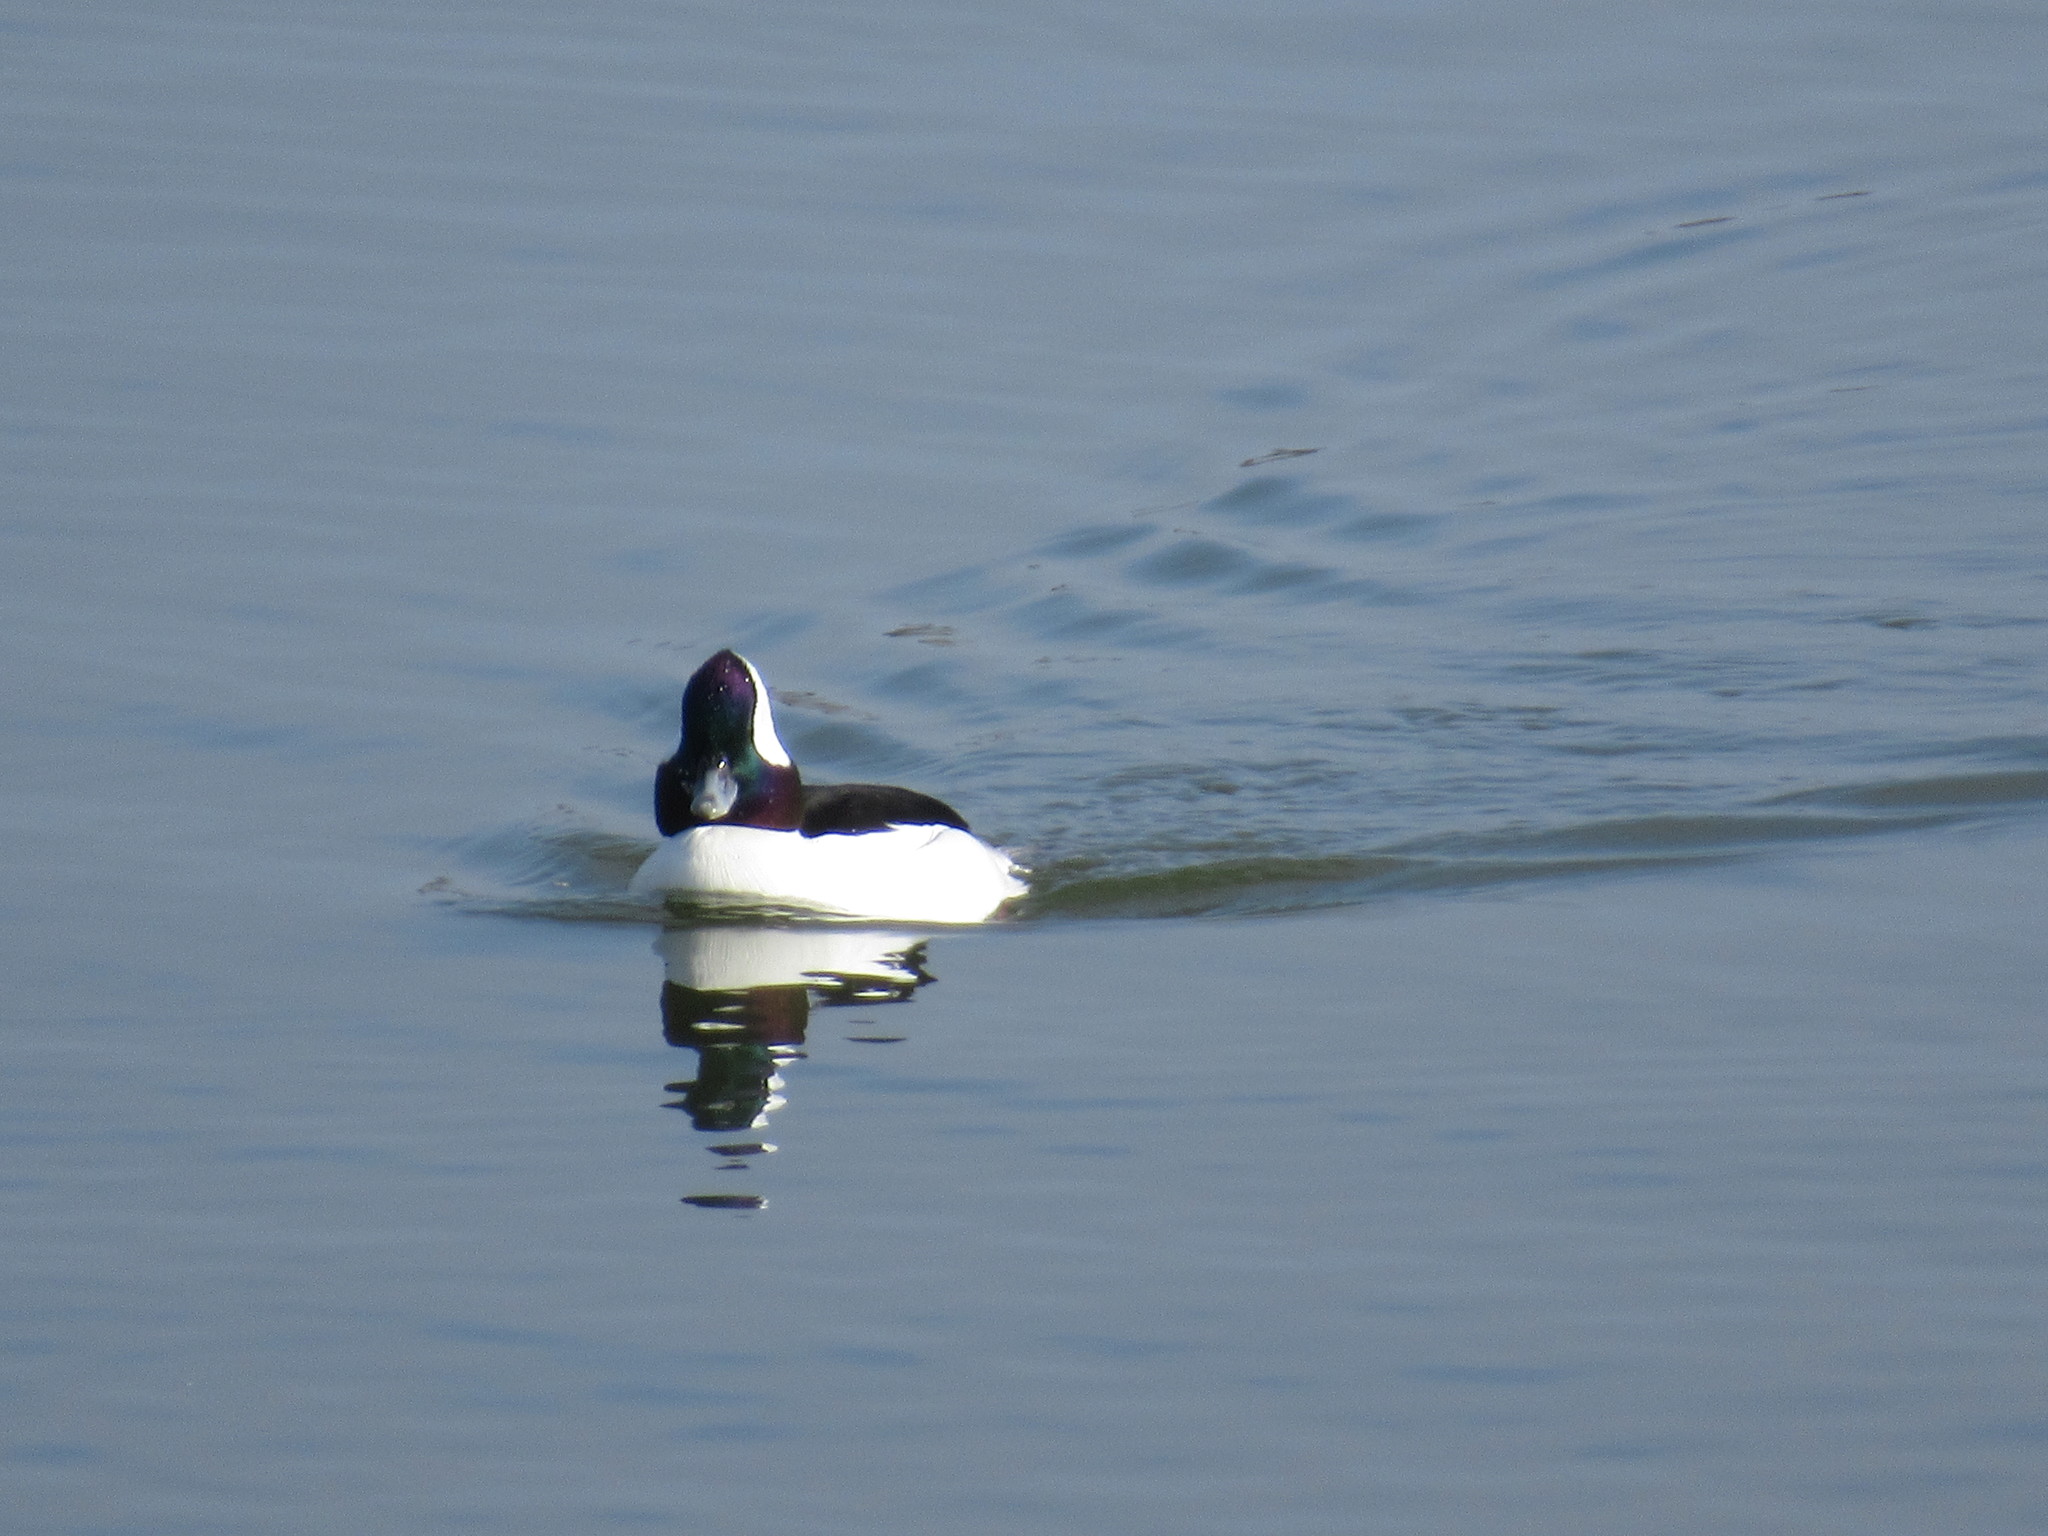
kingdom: Animalia
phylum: Chordata
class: Aves
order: Anseriformes
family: Anatidae
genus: Bucephala
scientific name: Bucephala albeola
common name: Bufflehead
